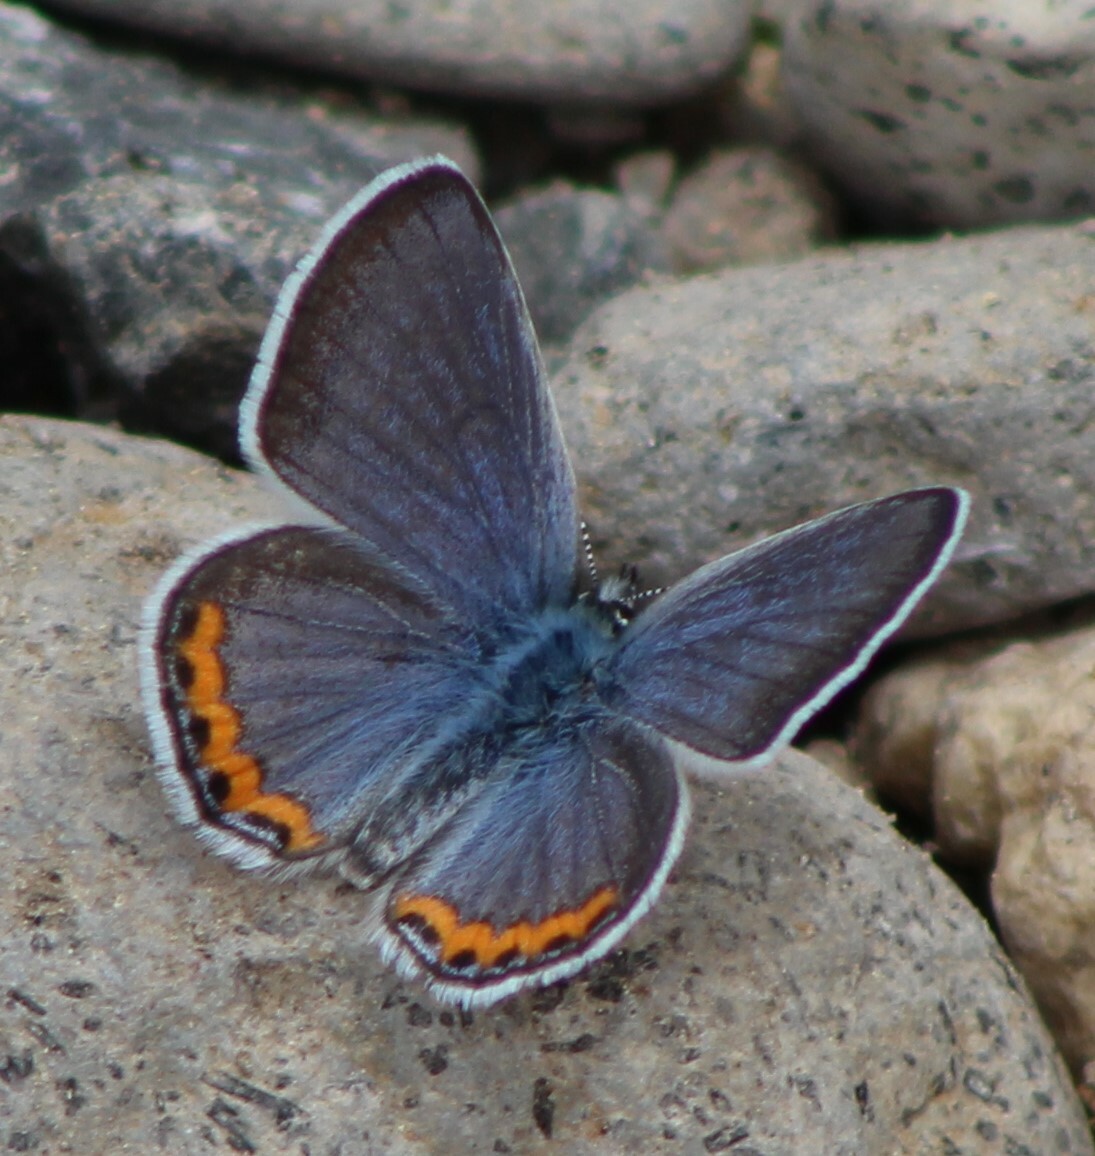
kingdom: Animalia
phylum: Arthropoda
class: Insecta
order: Lepidoptera
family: Lycaenidae
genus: Icaricia
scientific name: Icaricia lupini
